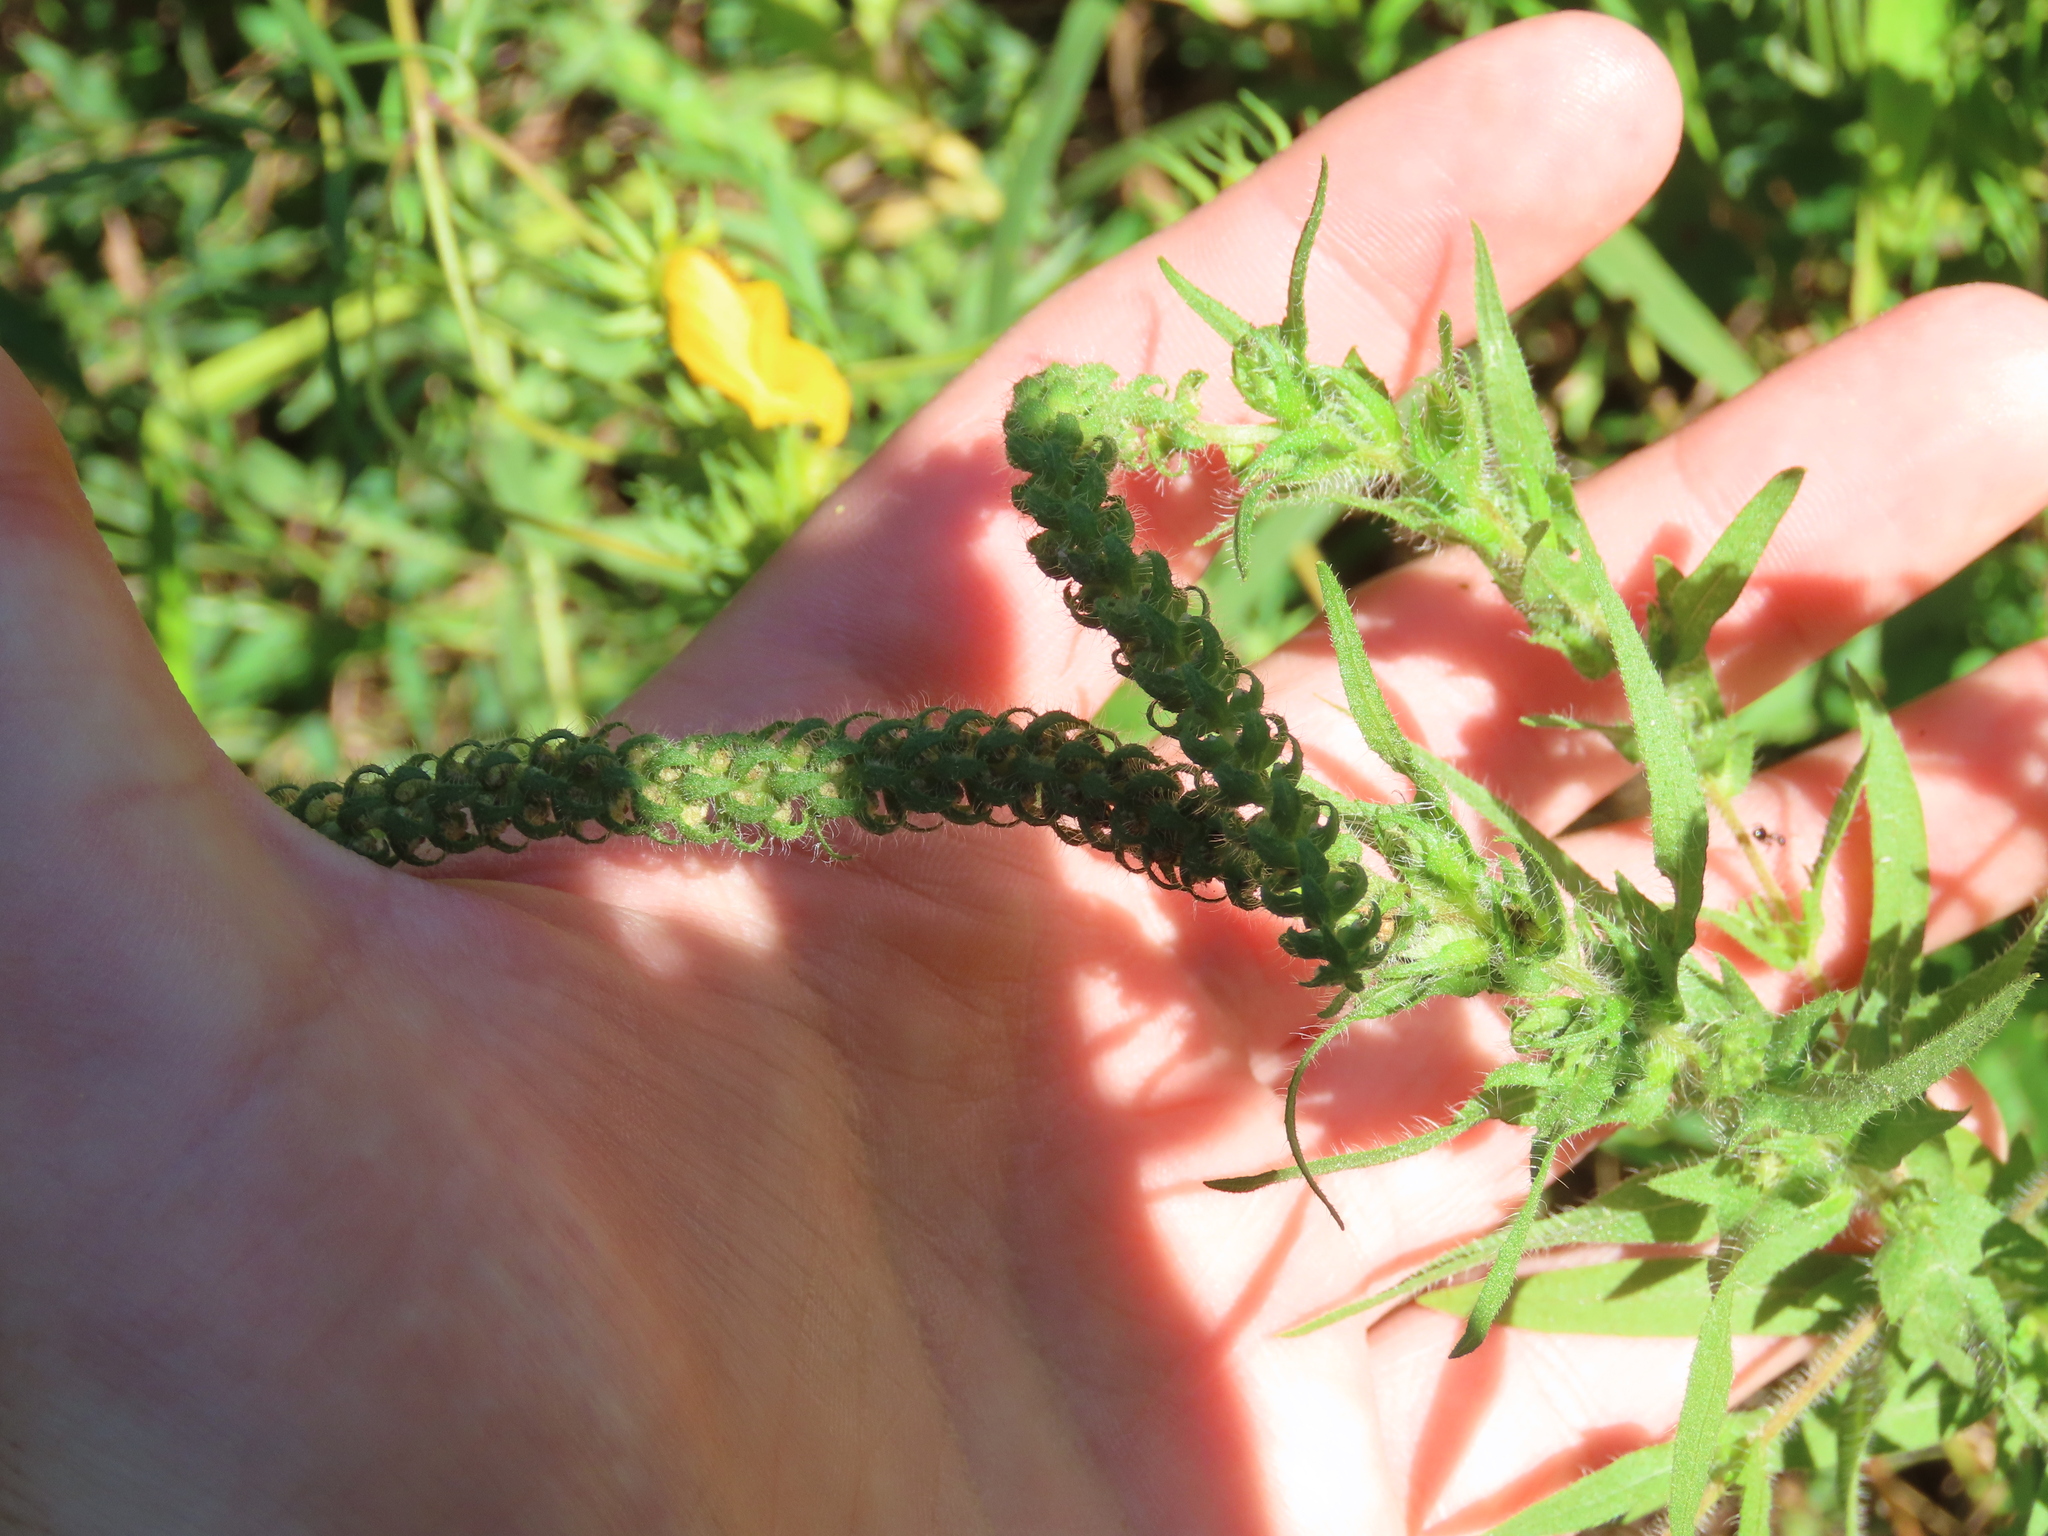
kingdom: Plantae
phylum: Tracheophyta
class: Magnoliopsida
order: Asterales
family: Asteraceae
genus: Ambrosia
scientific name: Ambrosia bidentata
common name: Southern ragweed
